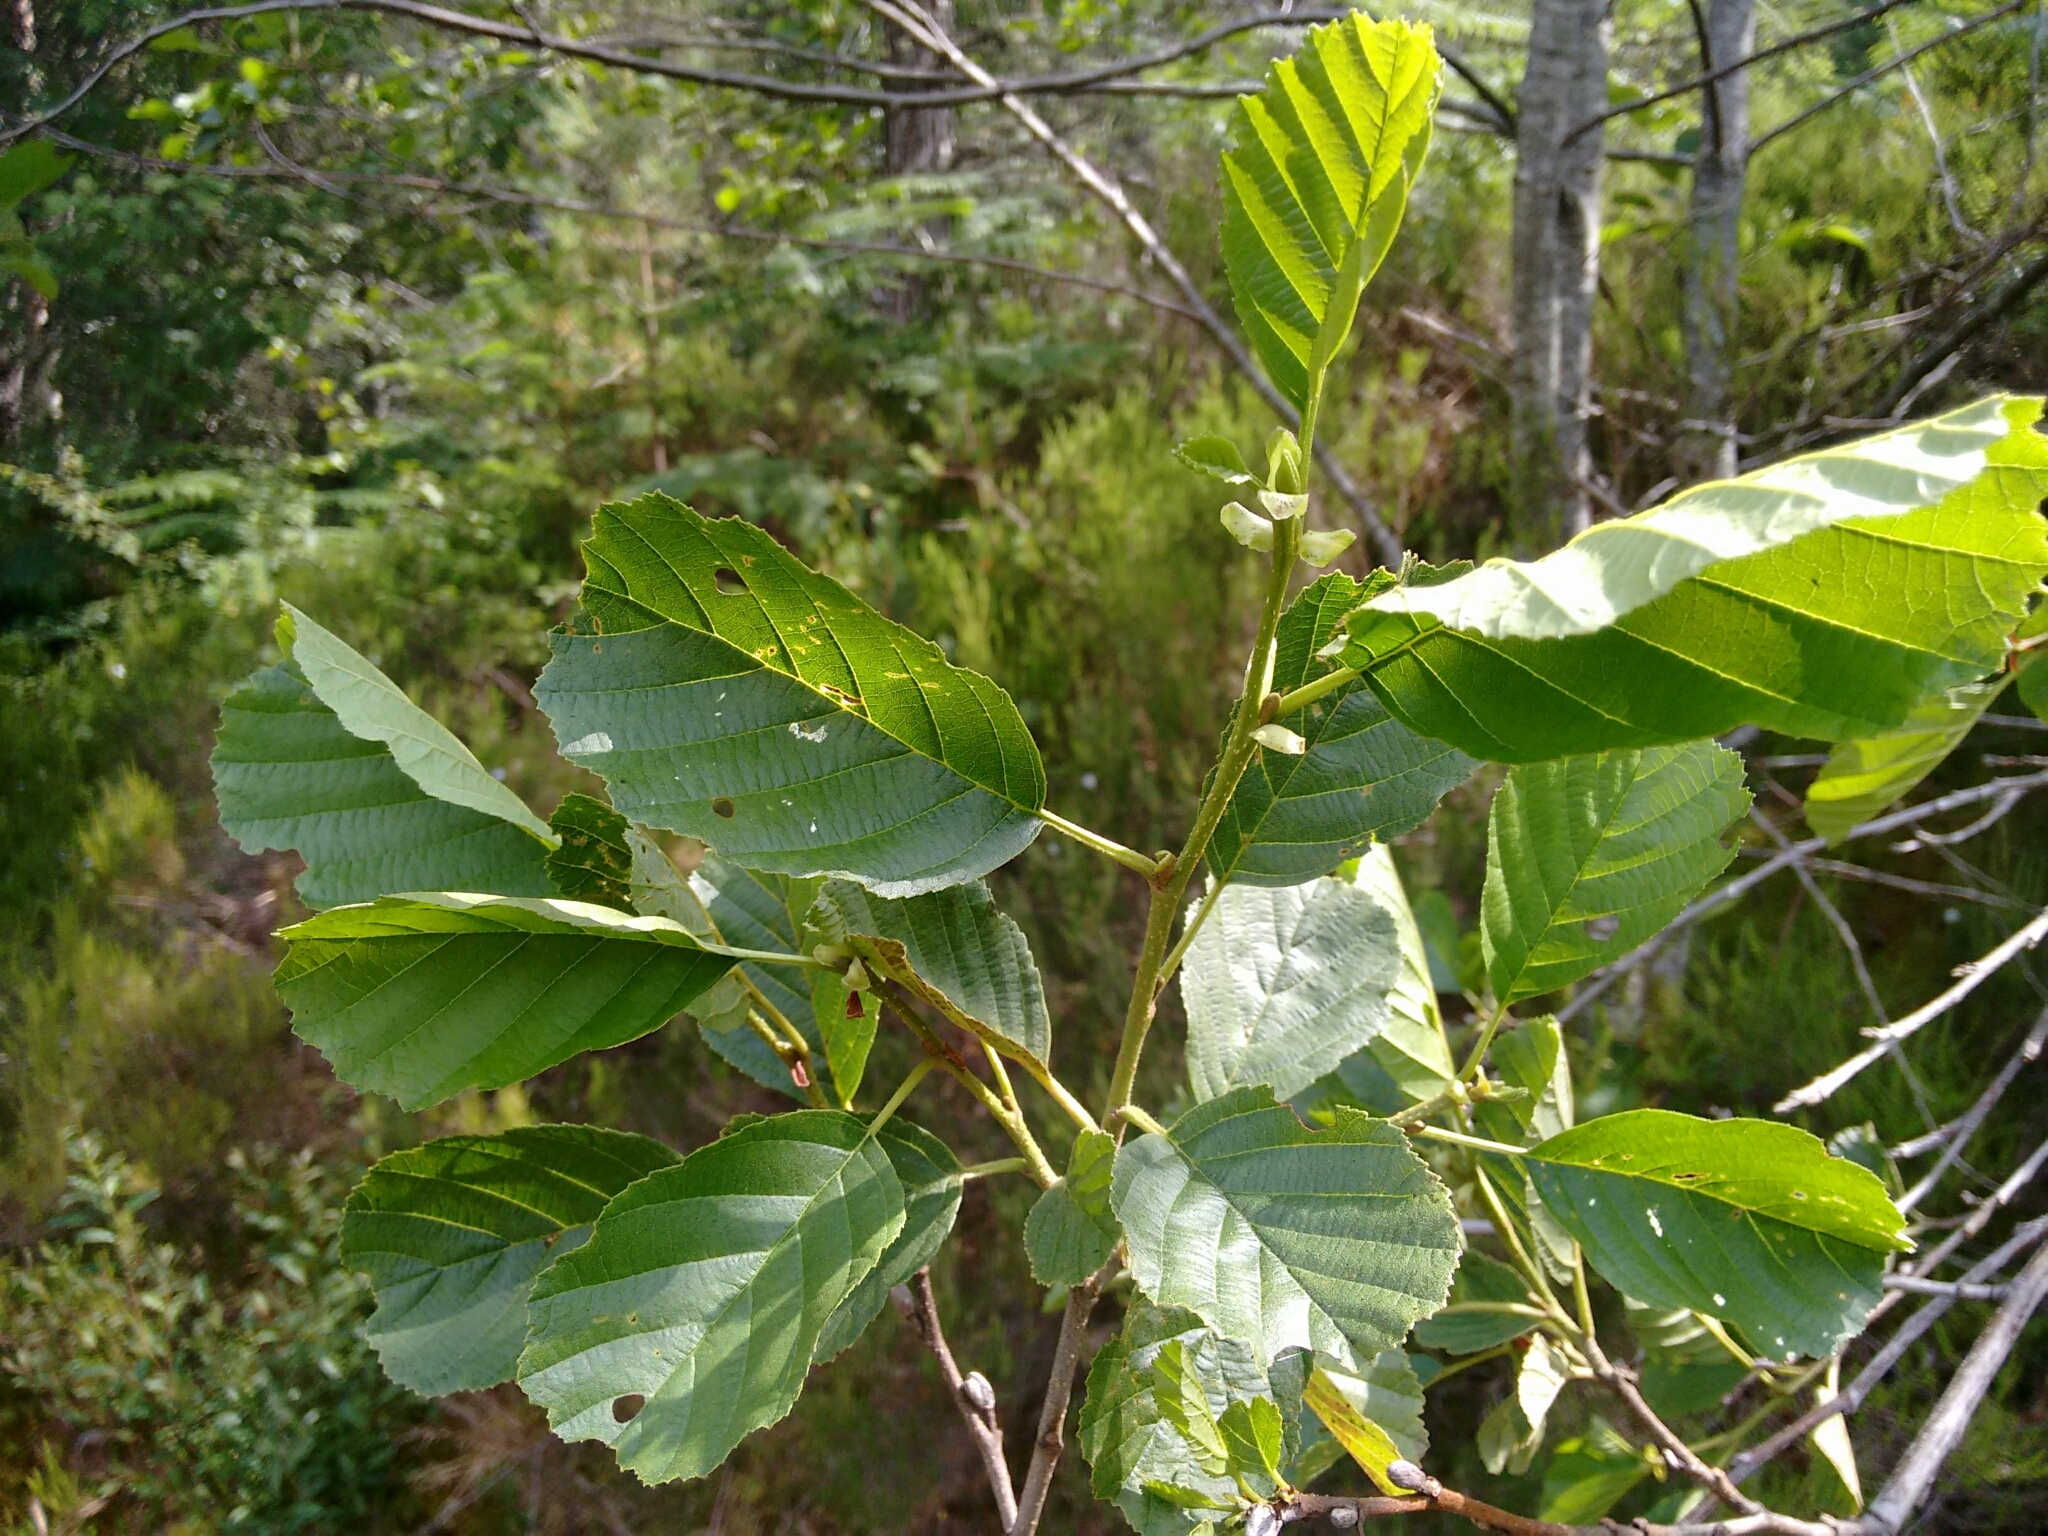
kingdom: Plantae
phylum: Tracheophyta
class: Magnoliopsida
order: Fagales
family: Betulaceae
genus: Alnus
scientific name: Alnus glutinosa
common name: Black alder
